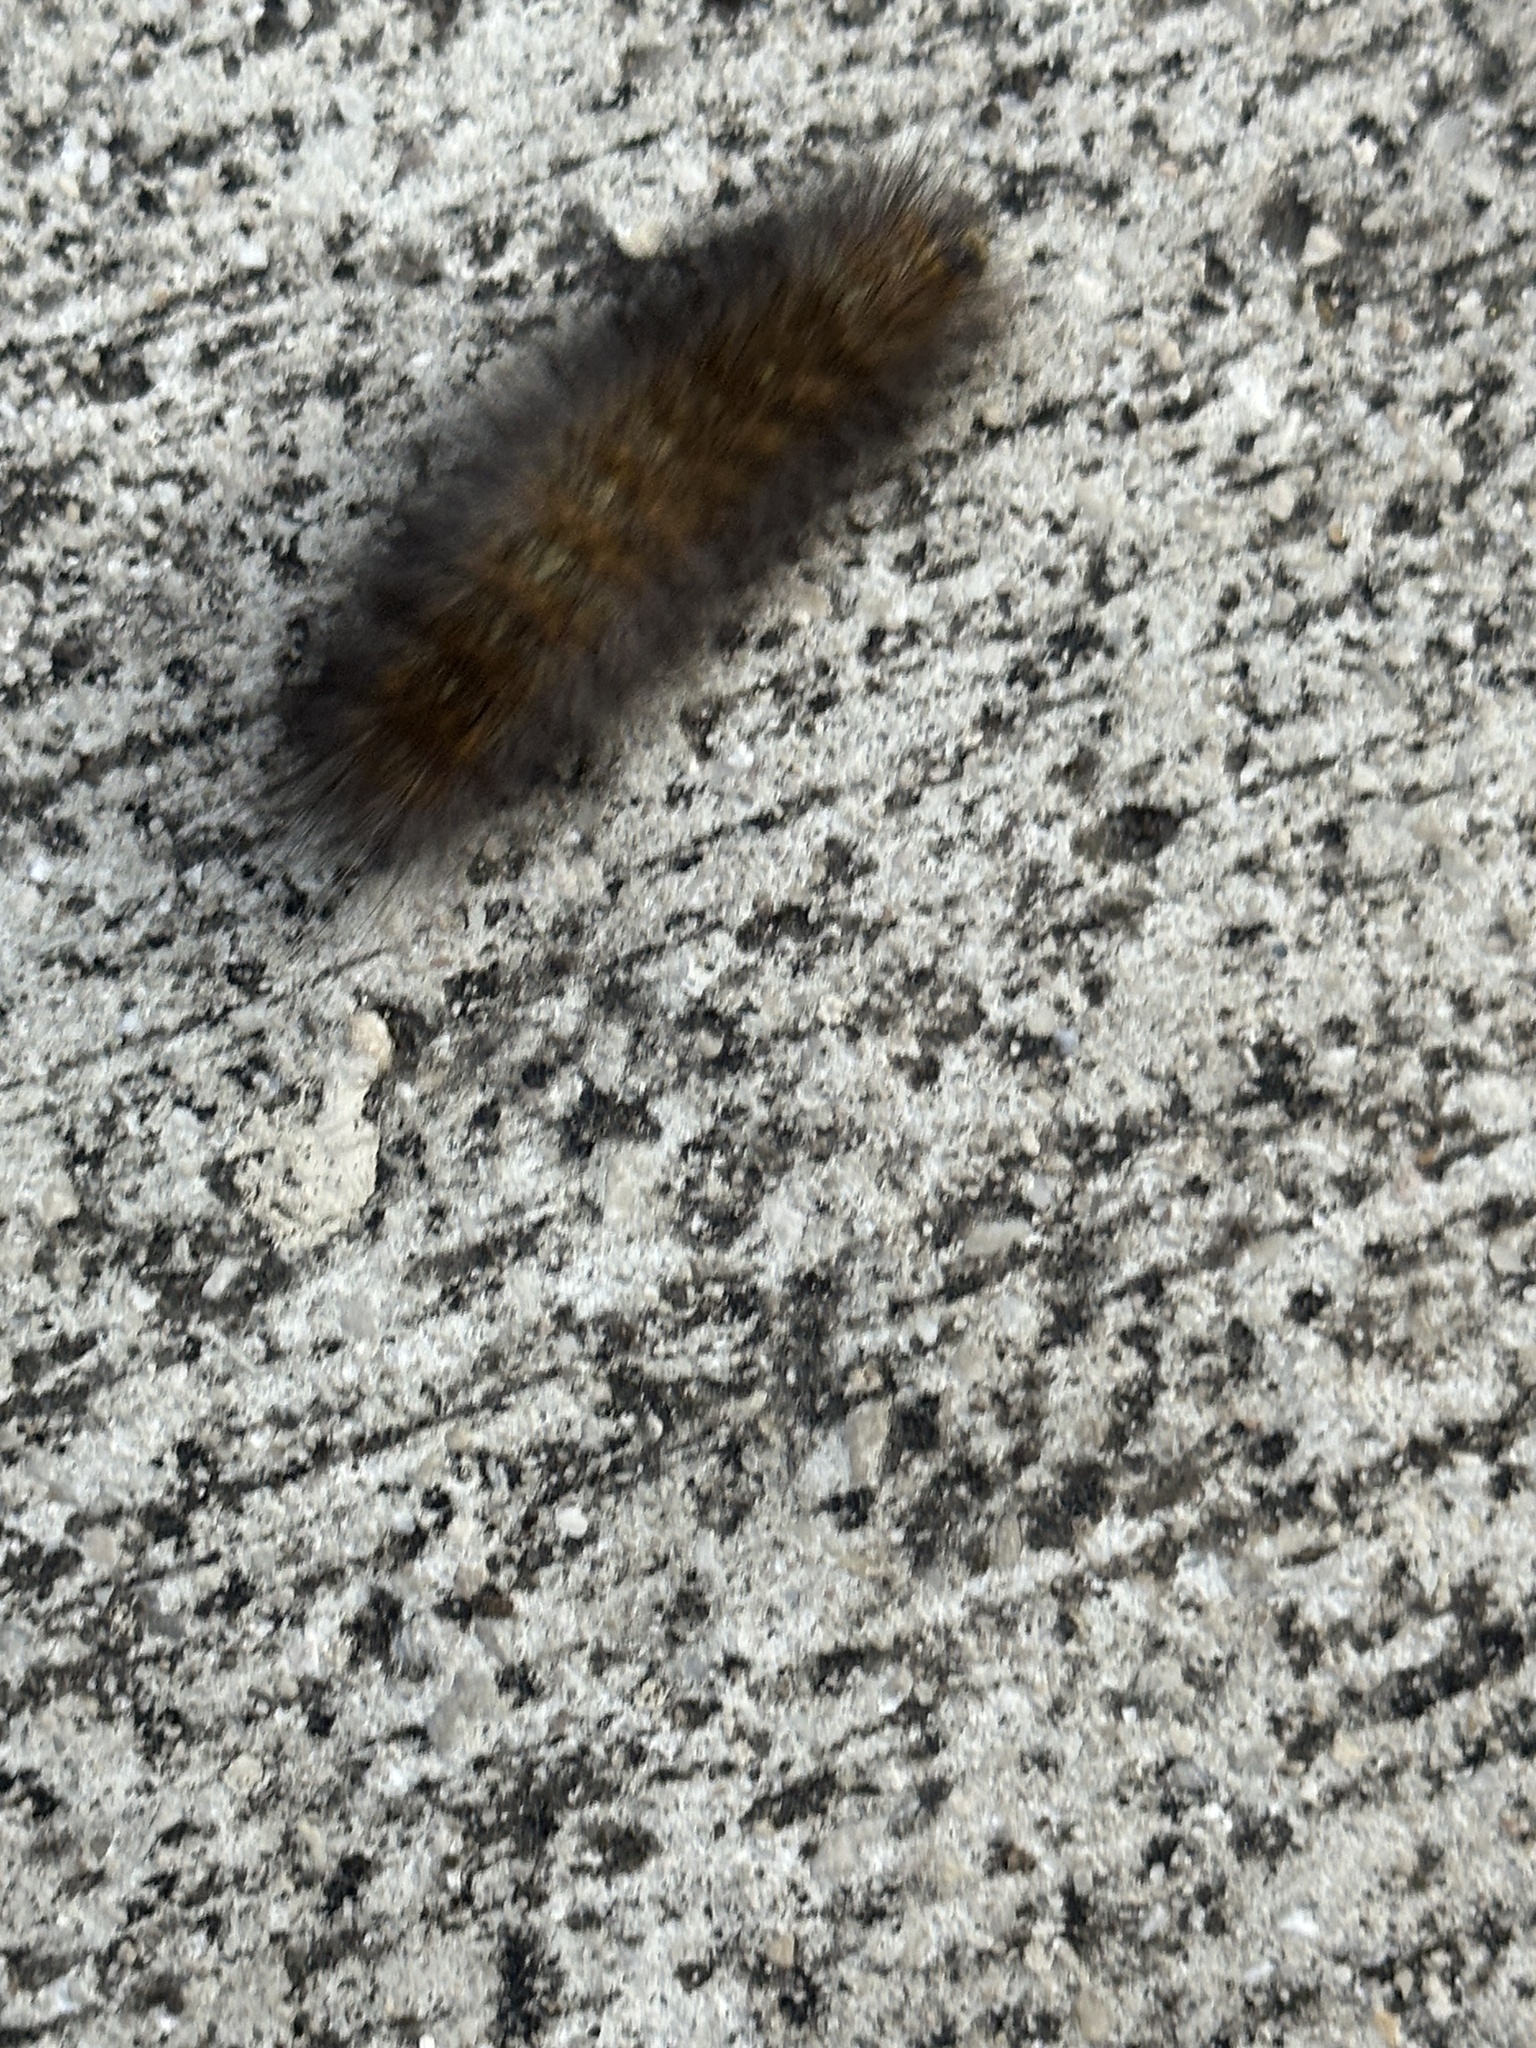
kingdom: Animalia
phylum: Arthropoda
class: Insecta
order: Lepidoptera
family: Erebidae
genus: Estigmene
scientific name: Estigmene acrea
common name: Salt marsh moth
